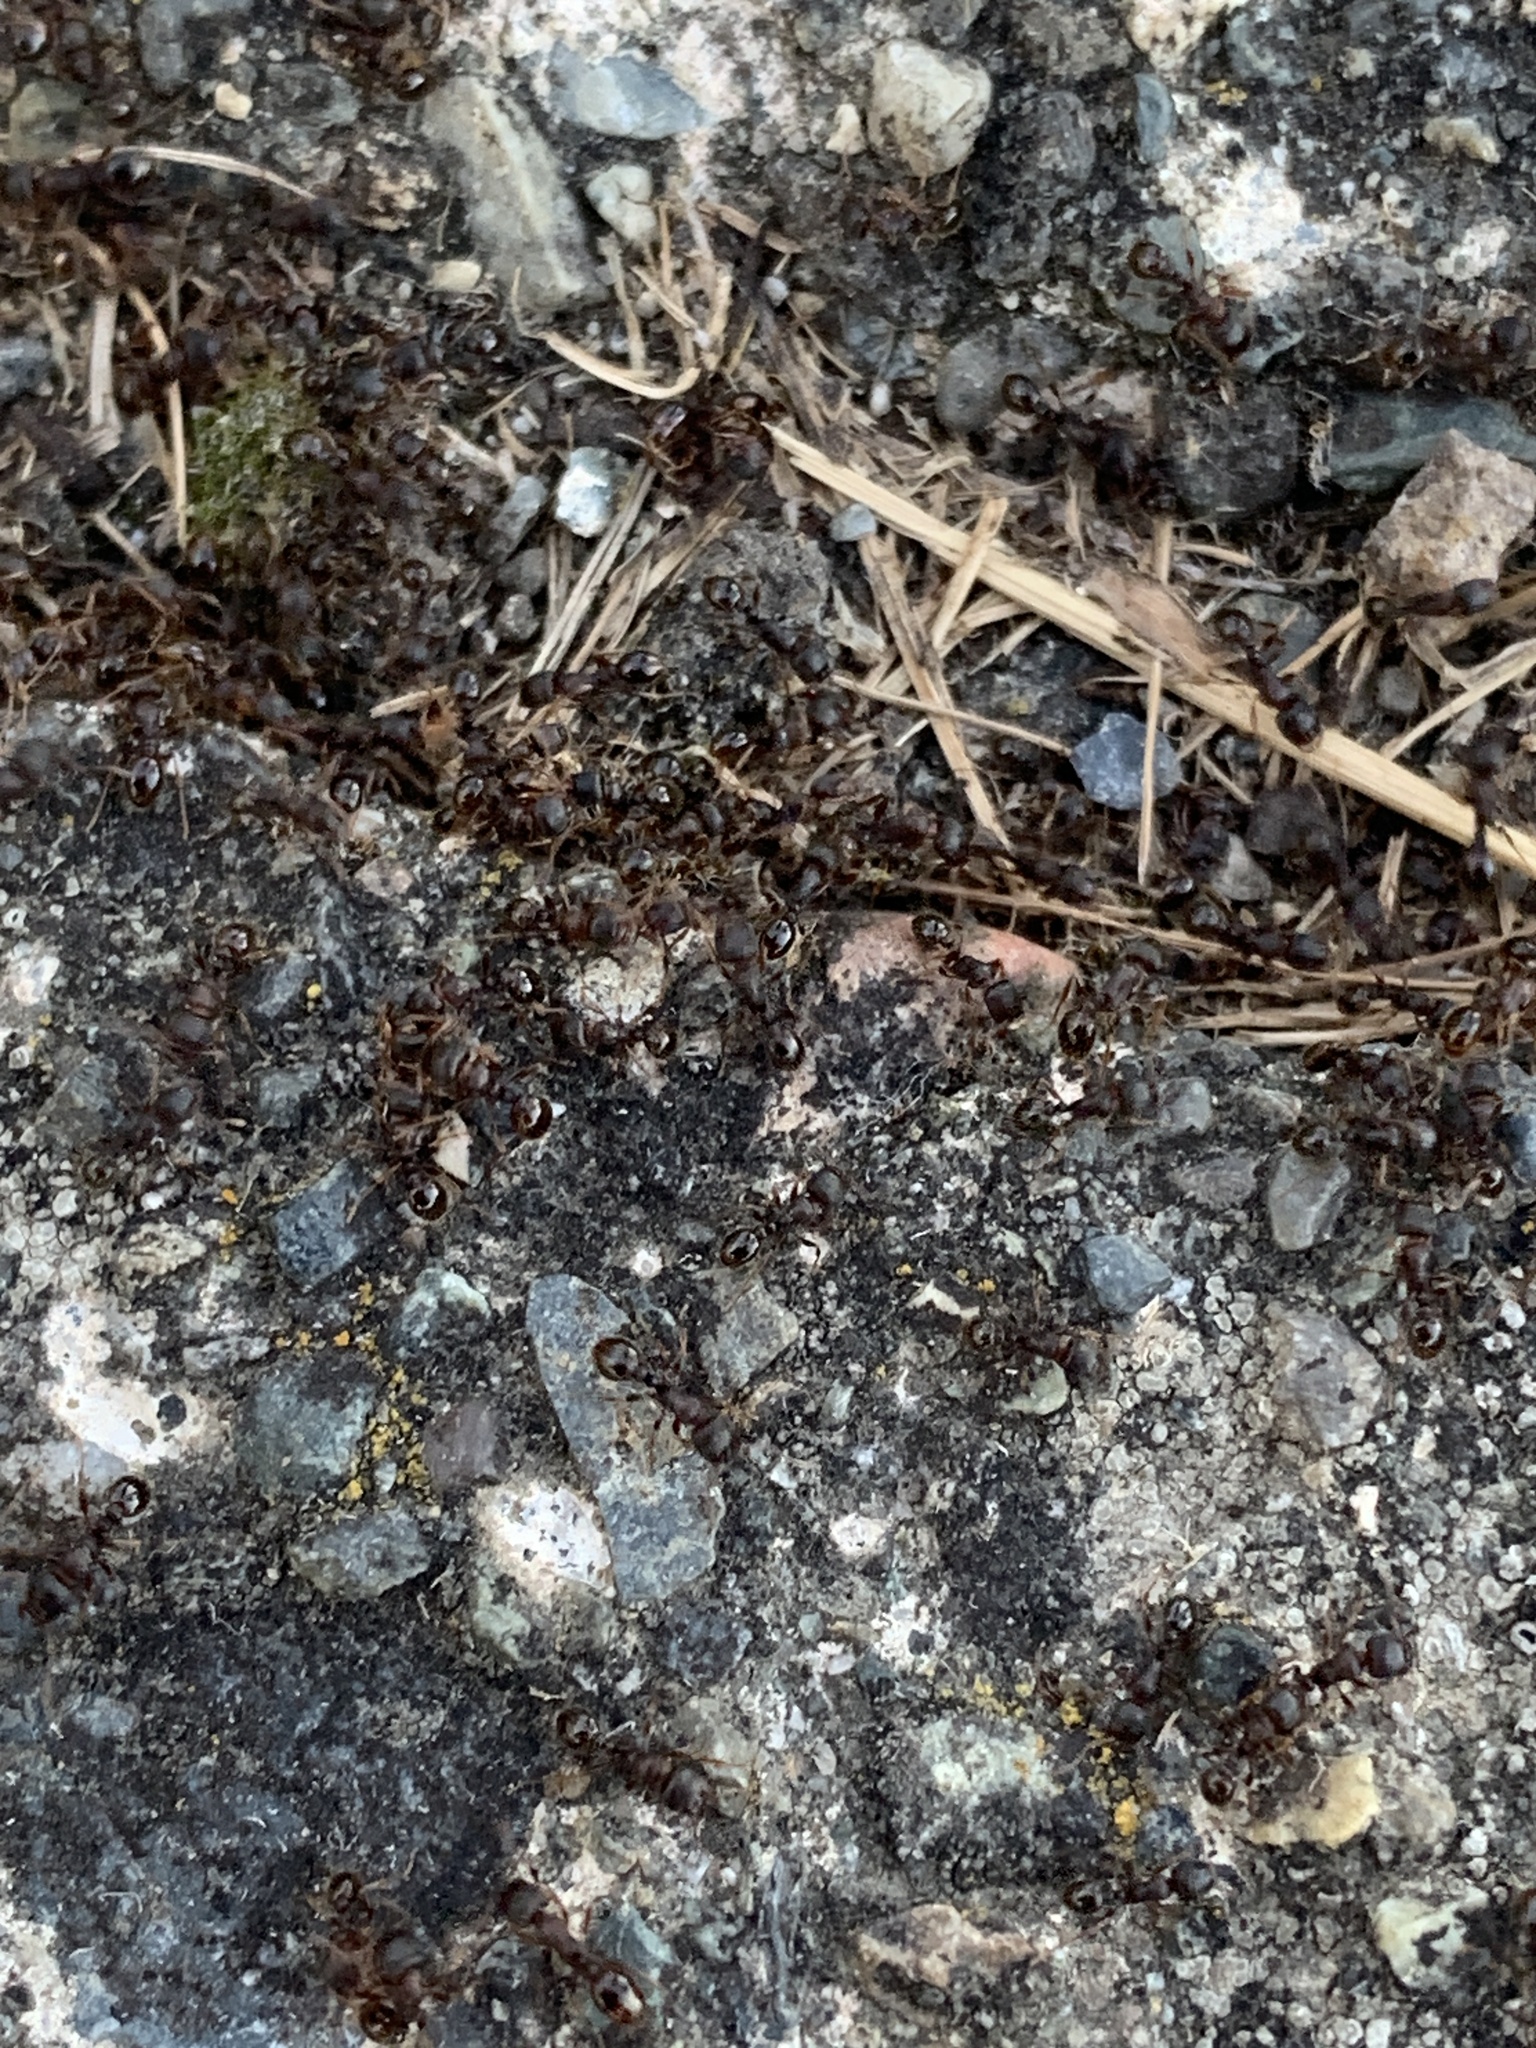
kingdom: Animalia
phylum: Arthropoda
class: Insecta
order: Hymenoptera
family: Formicidae
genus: Tetramorium
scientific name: Tetramorium immigrans
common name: Pavement ant
